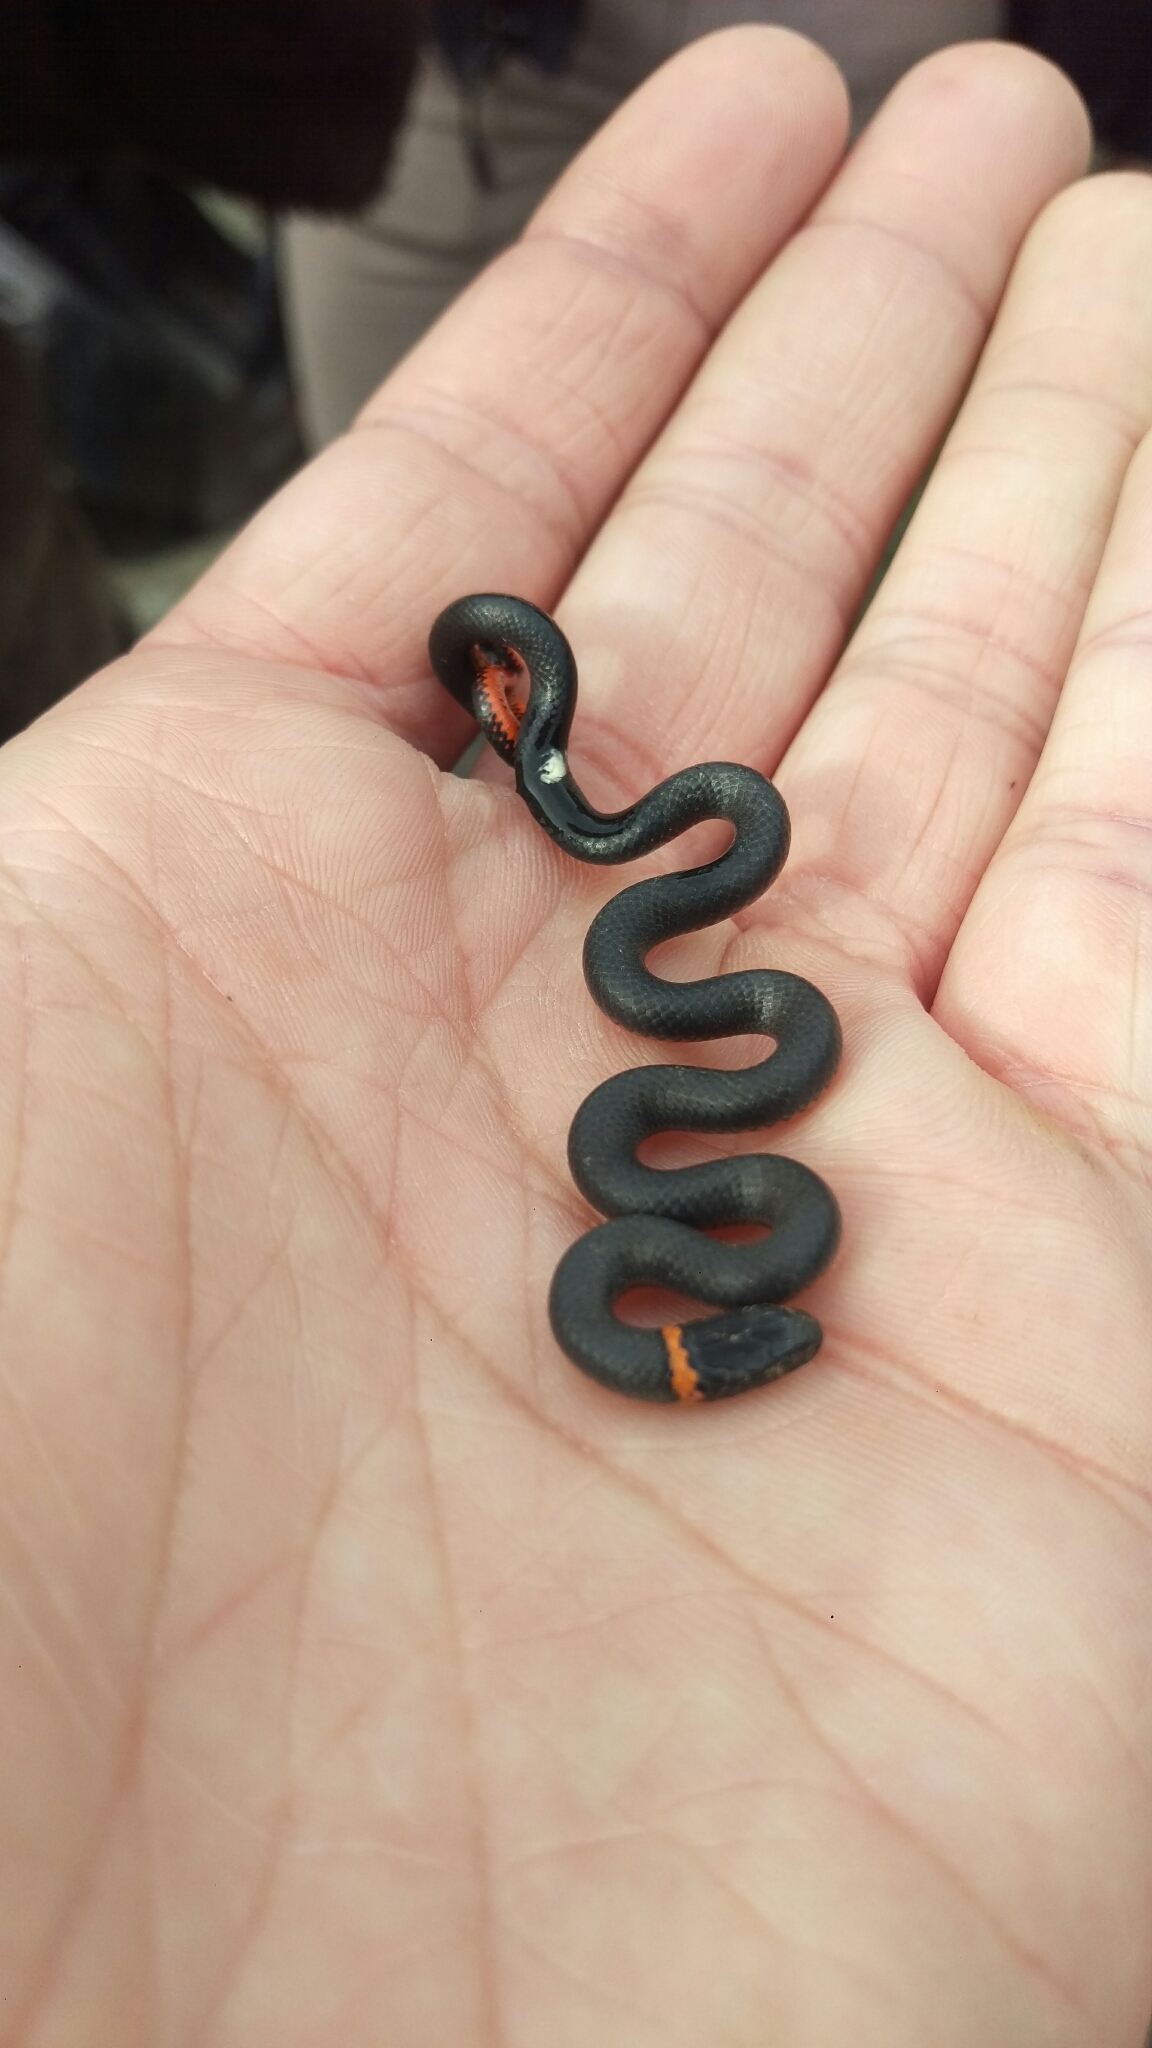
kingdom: Animalia
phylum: Chordata
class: Squamata
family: Colubridae
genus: Diadophis
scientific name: Diadophis punctatus
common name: Ringneck snake
